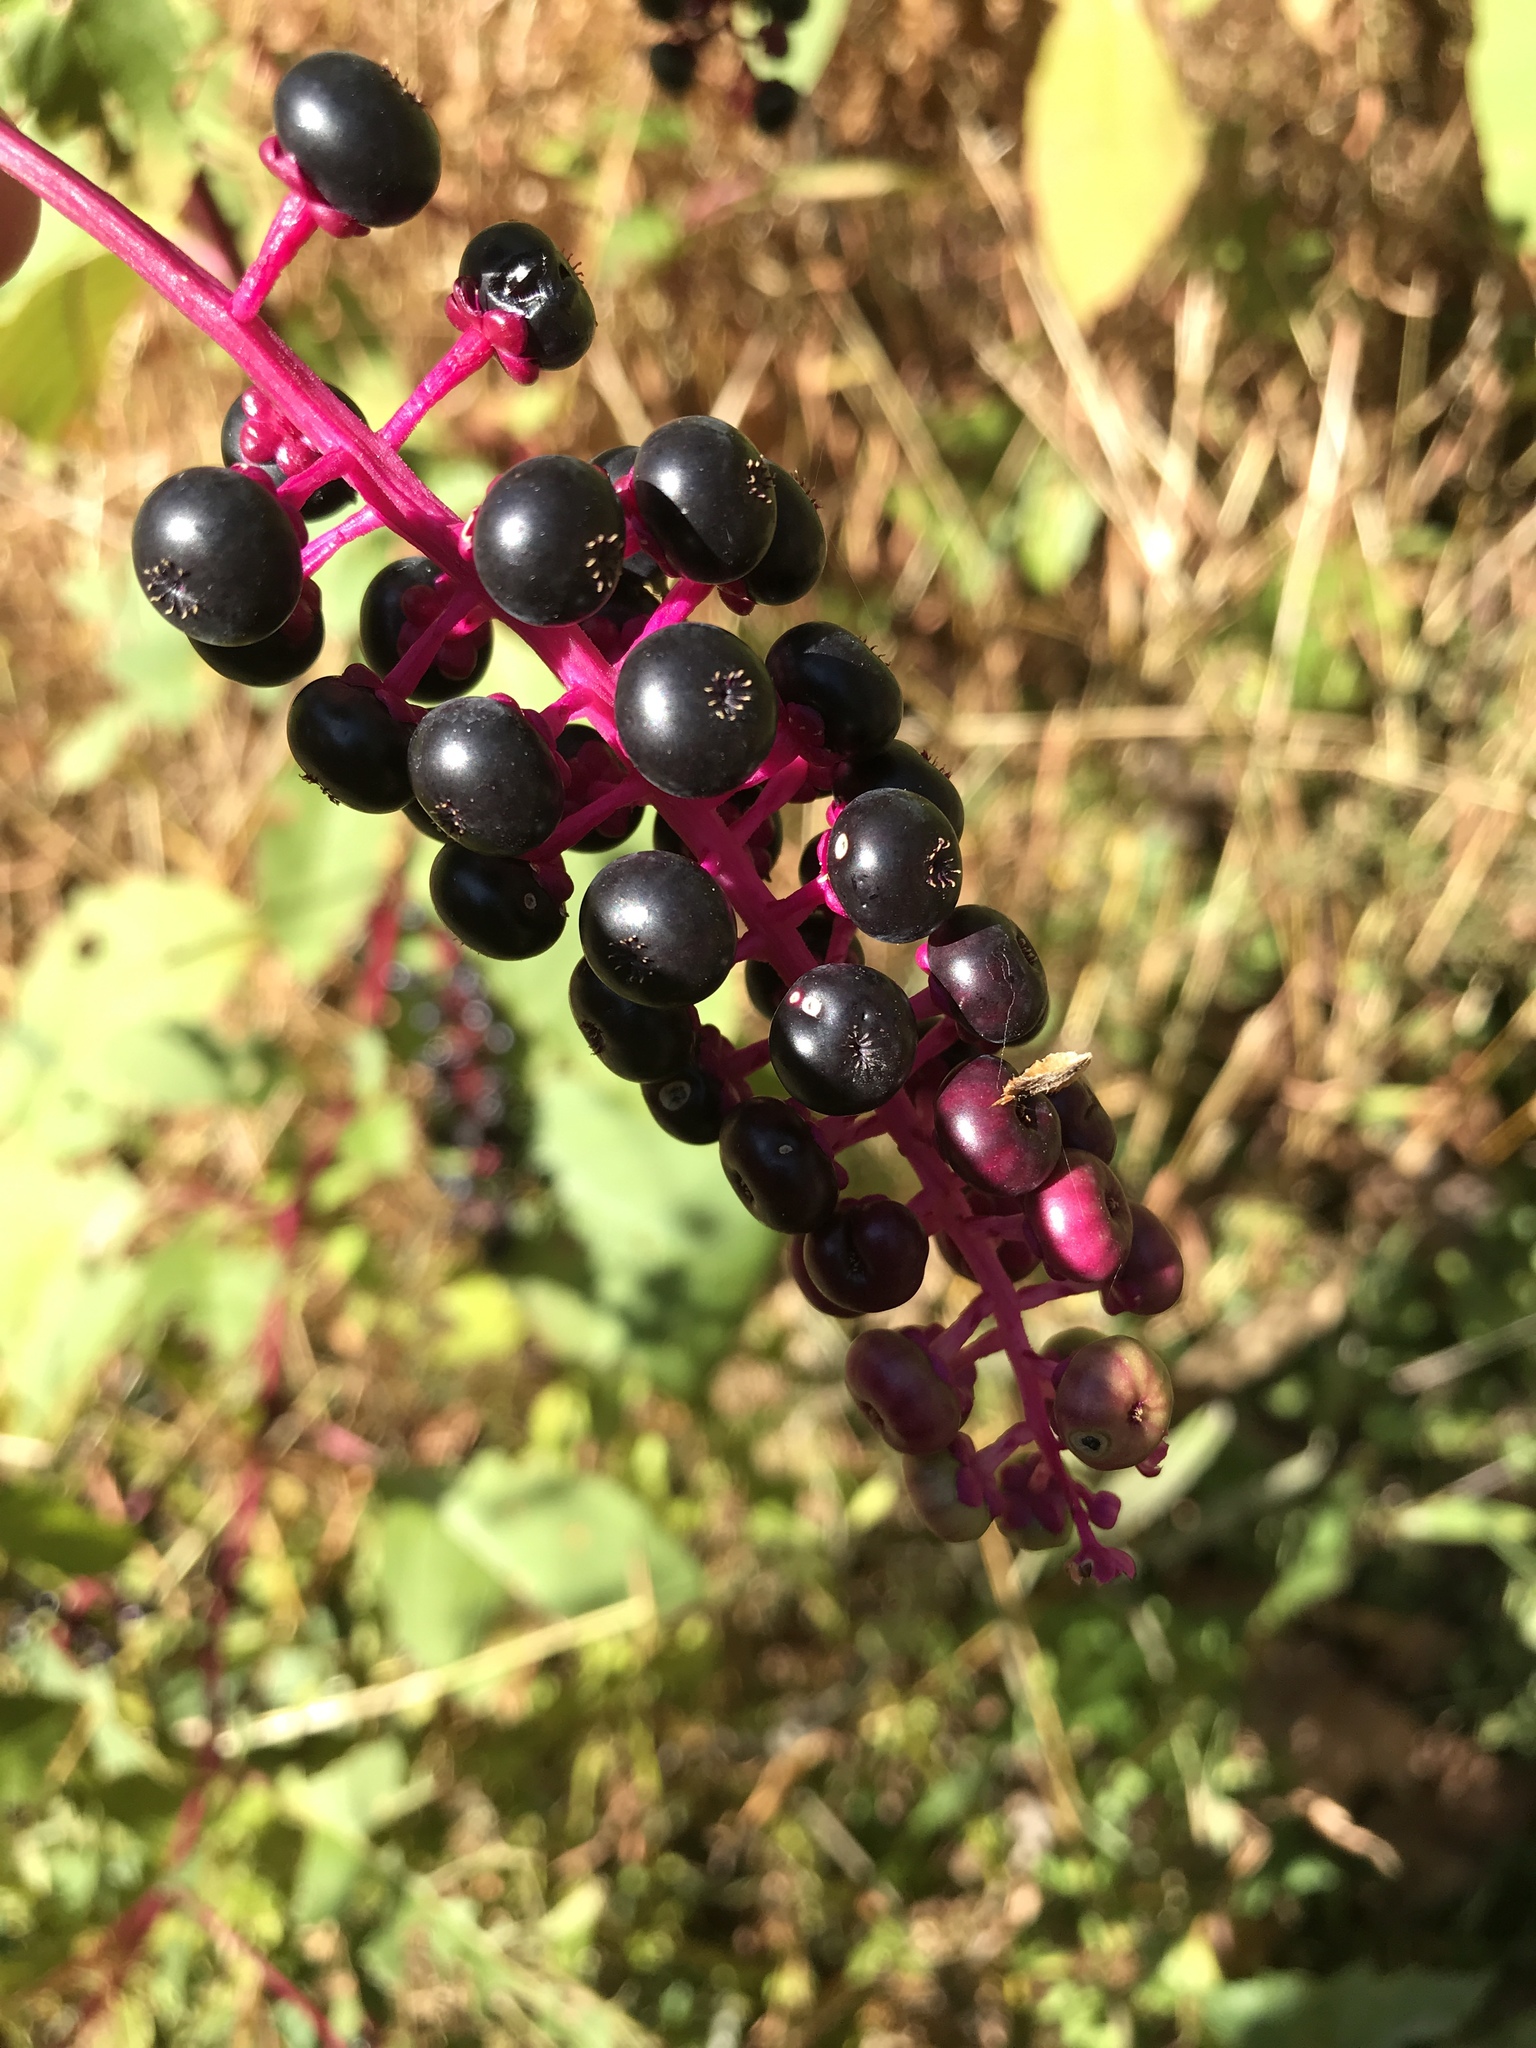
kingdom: Plantae
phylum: Tracheophyta
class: Magnoliopsida
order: Caryophyllales
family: Phytolaccaceae
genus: Phytolacca
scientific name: Phytolacca americana
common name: American pokeweed
